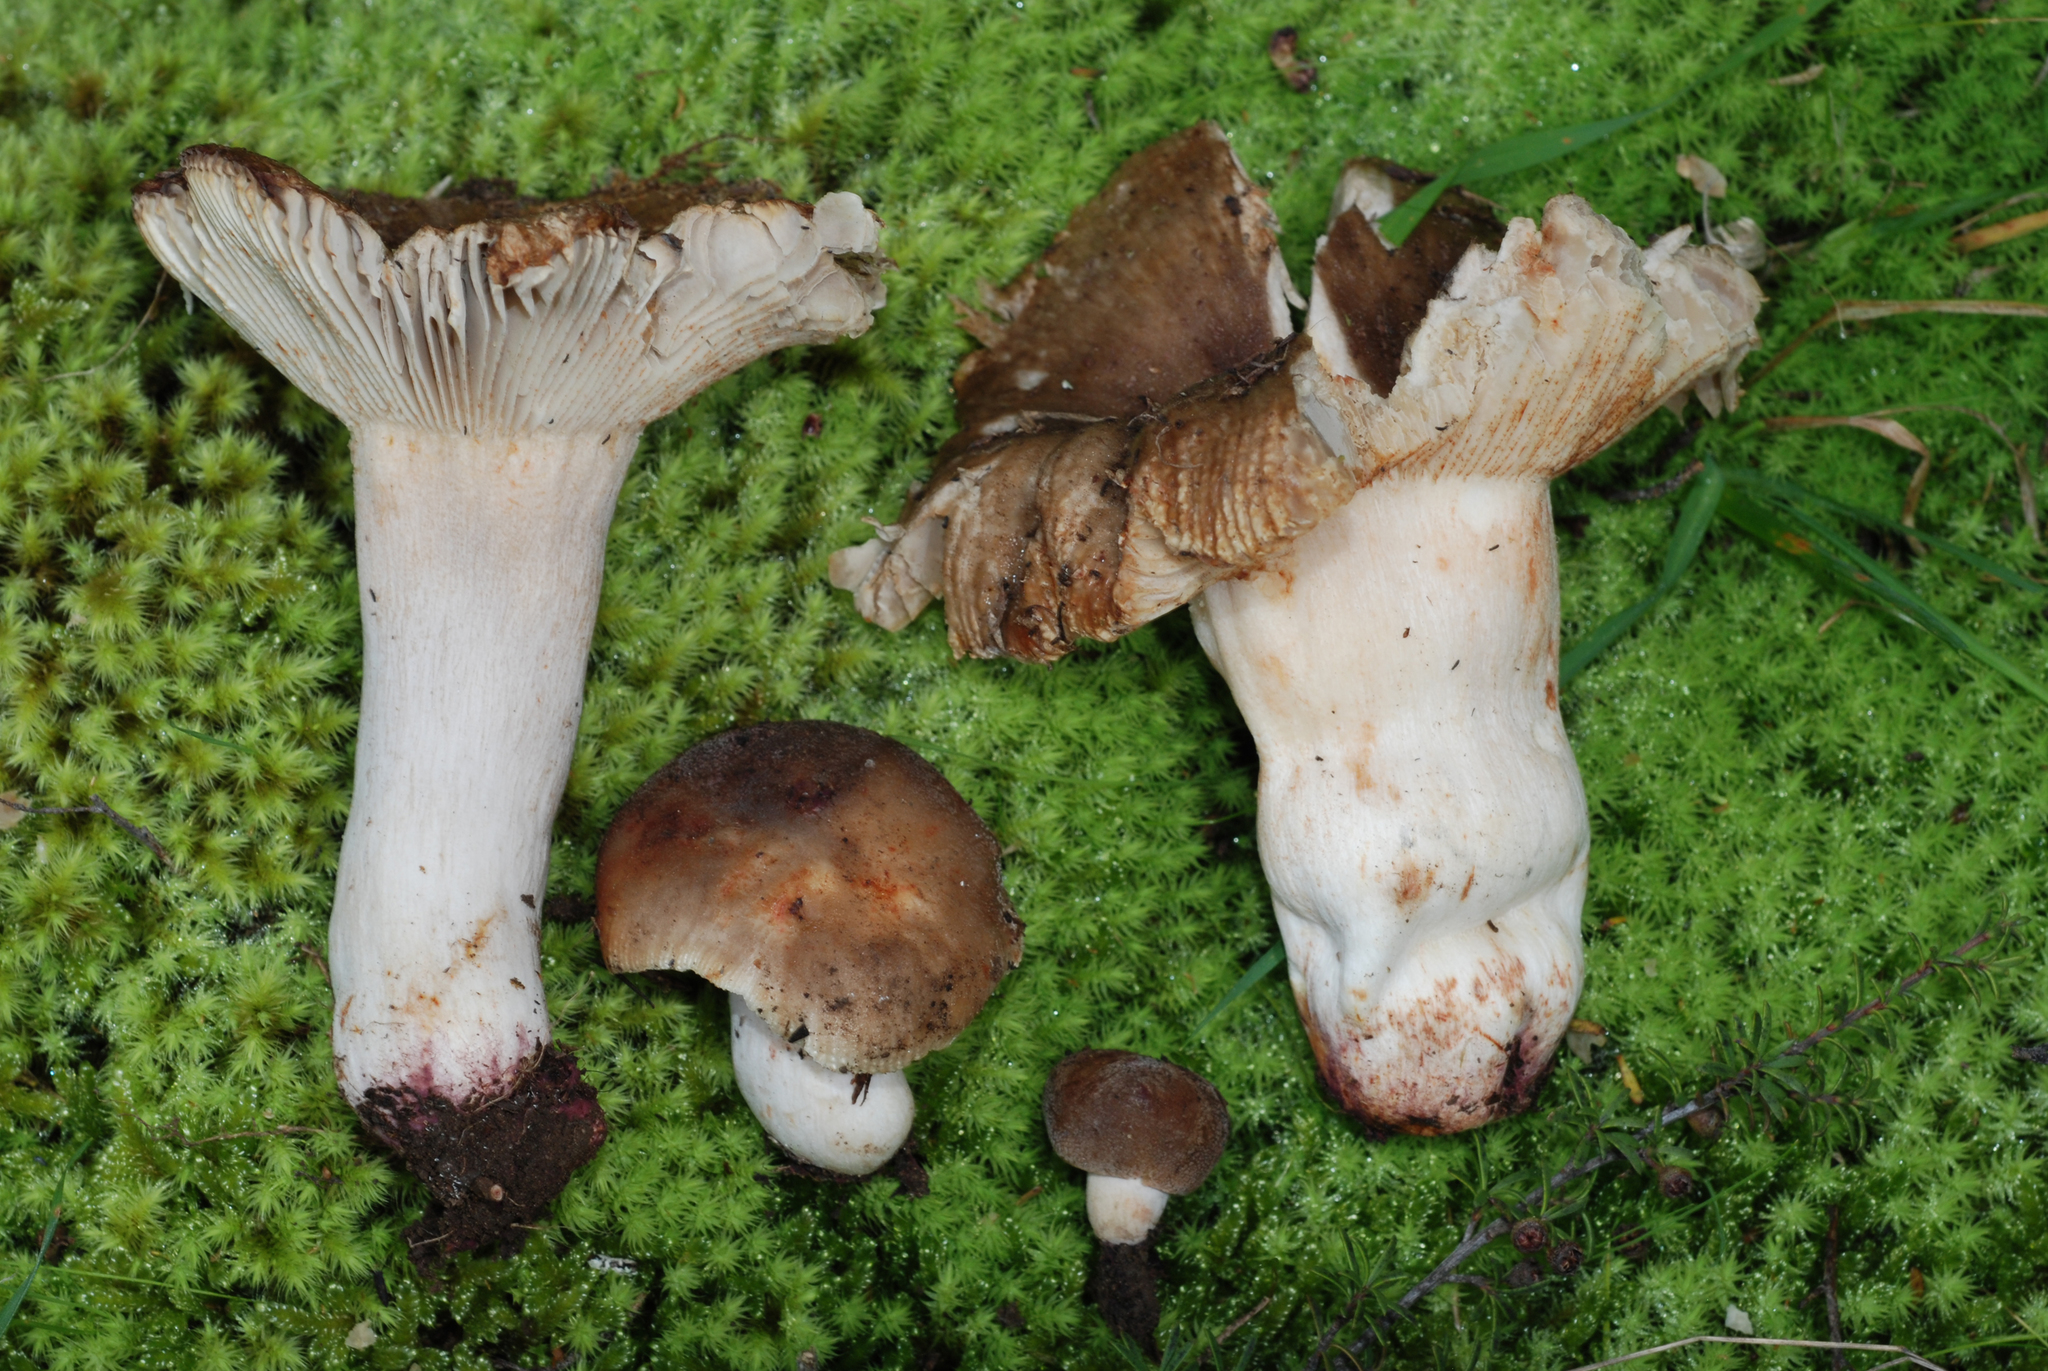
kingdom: Fungi
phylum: Basidiomycota
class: Agaricomycetes
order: Russulales
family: Russulaceae
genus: Russula
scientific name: Russula vinaceocuticulata
